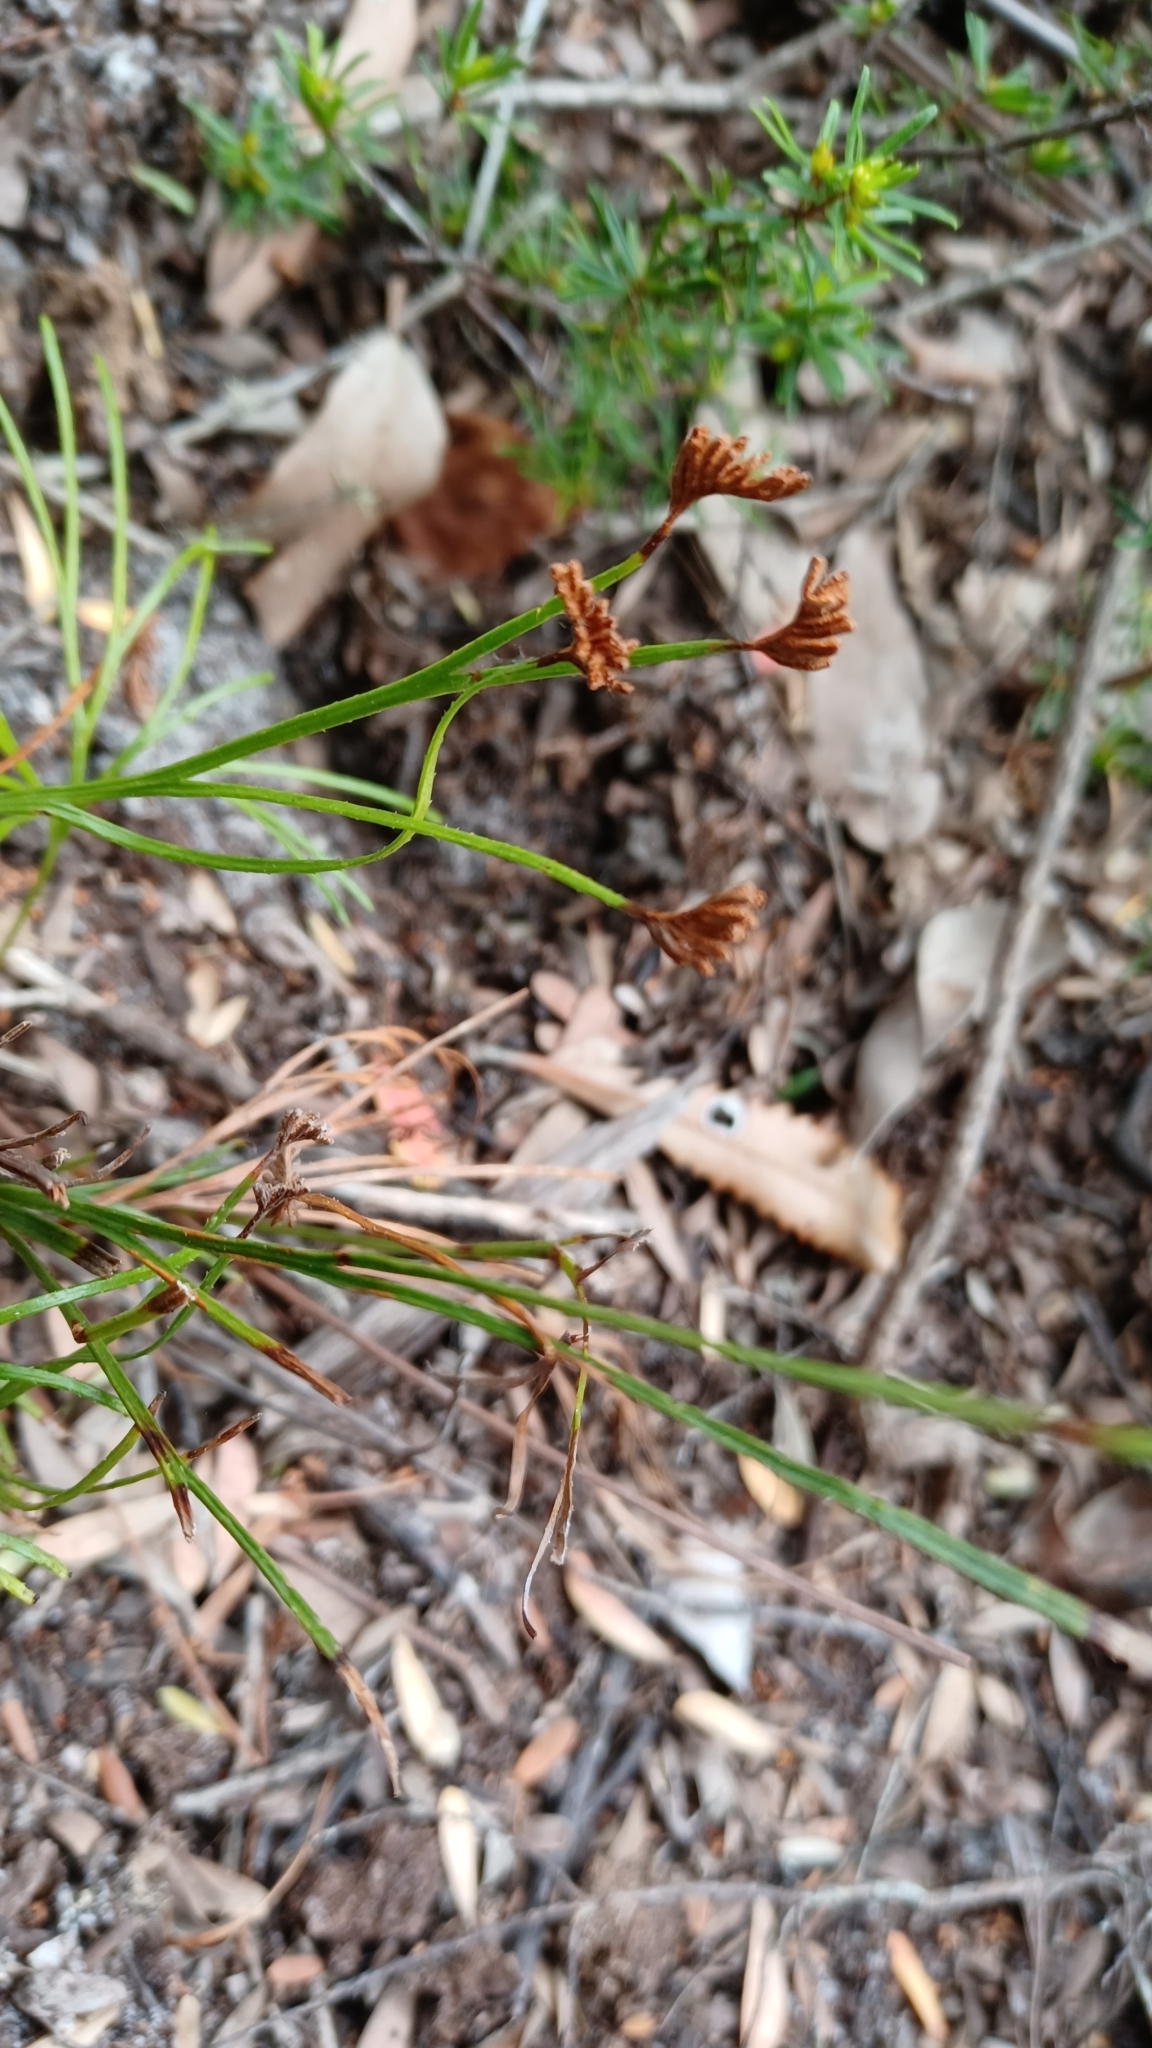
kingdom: Plantae
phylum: Tracheophyta
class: Polypodiopsida
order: Schizaeales
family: Schizaeaceae
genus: Schizaea
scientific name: Schizaea dichotoma
